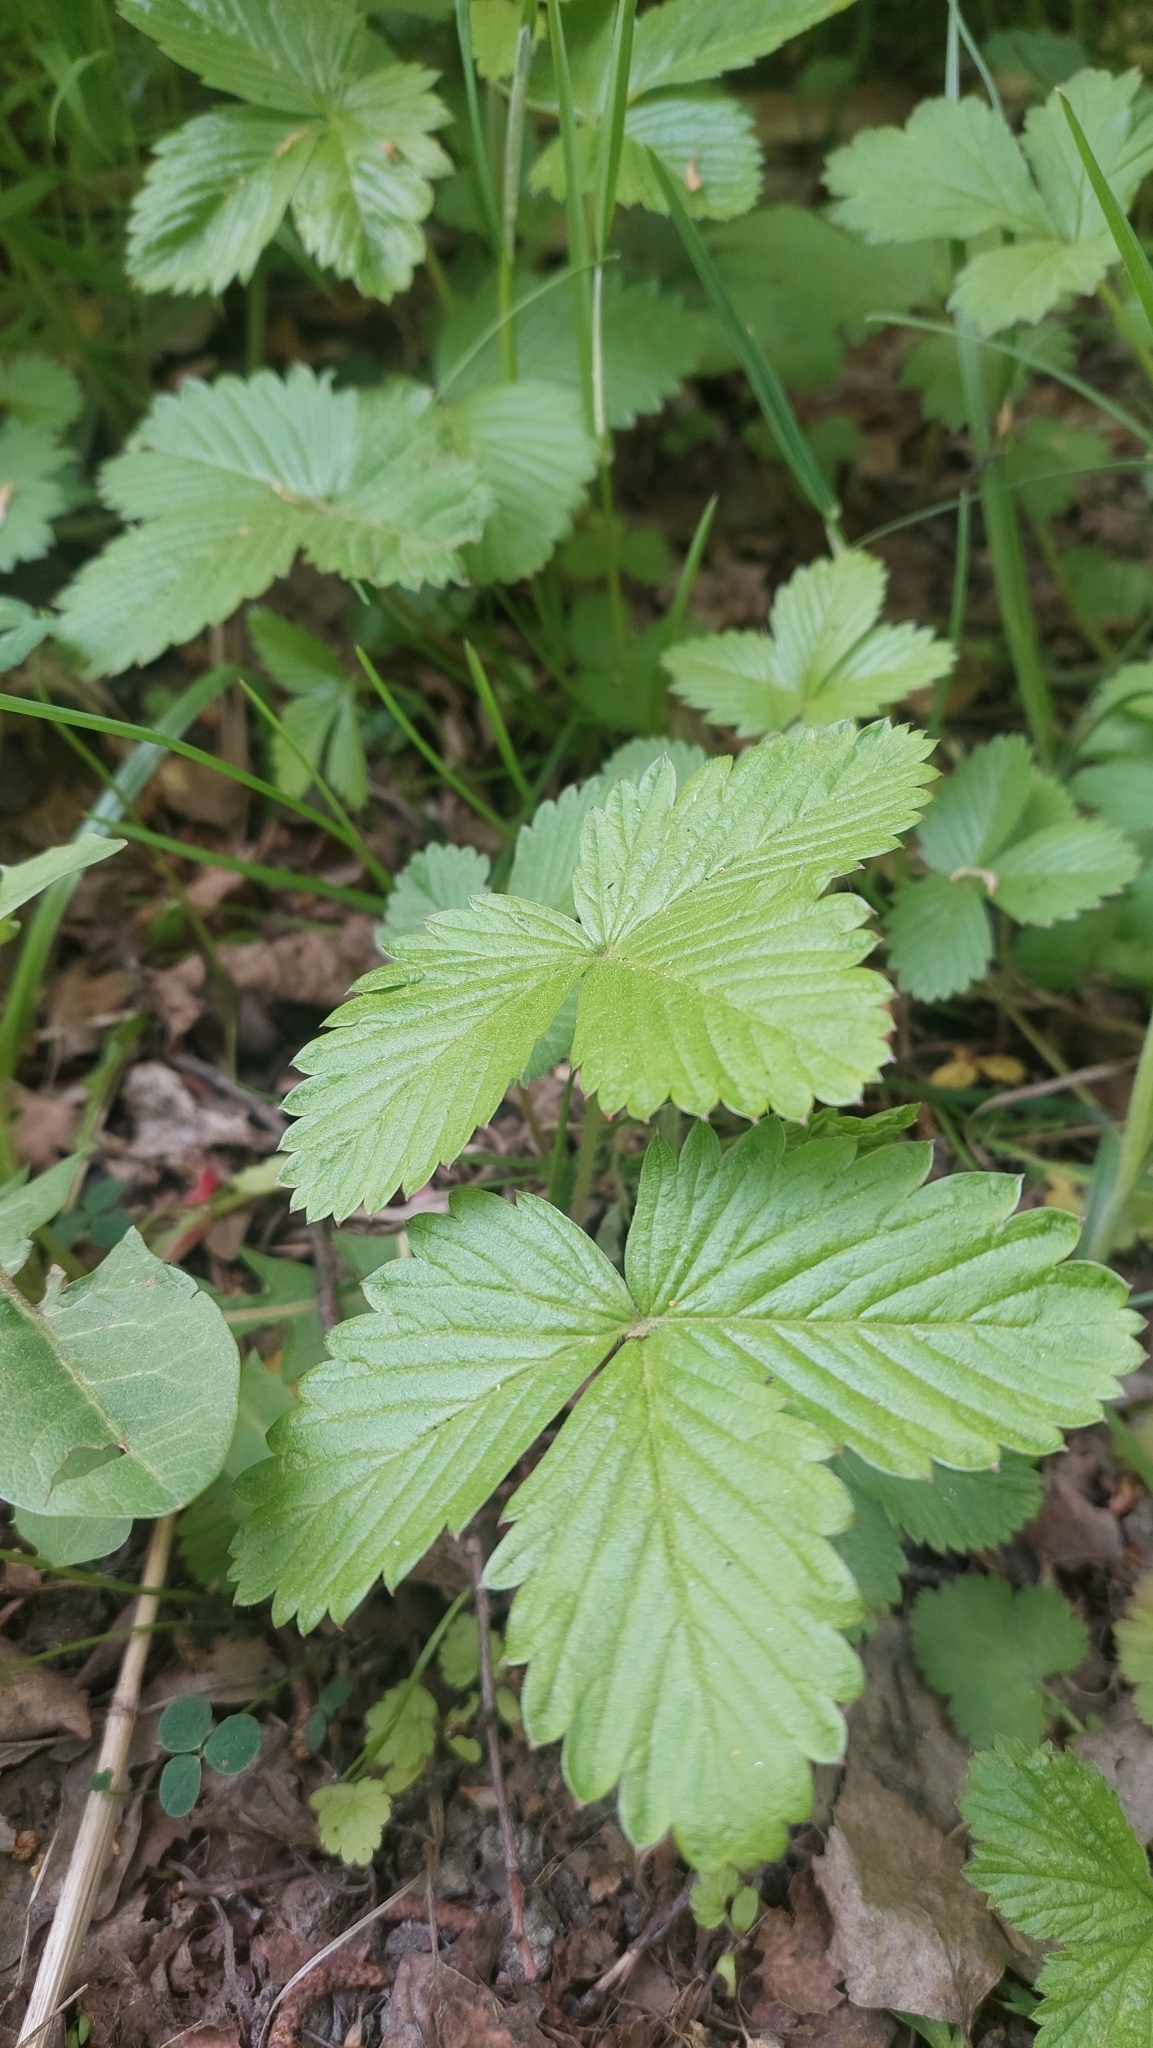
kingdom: Plantae
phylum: Tracheophyta
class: Magnoliopsida
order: Rosales
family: Rosaceae
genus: Fragaria
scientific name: Fragaria vesca
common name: Wild strawberry
